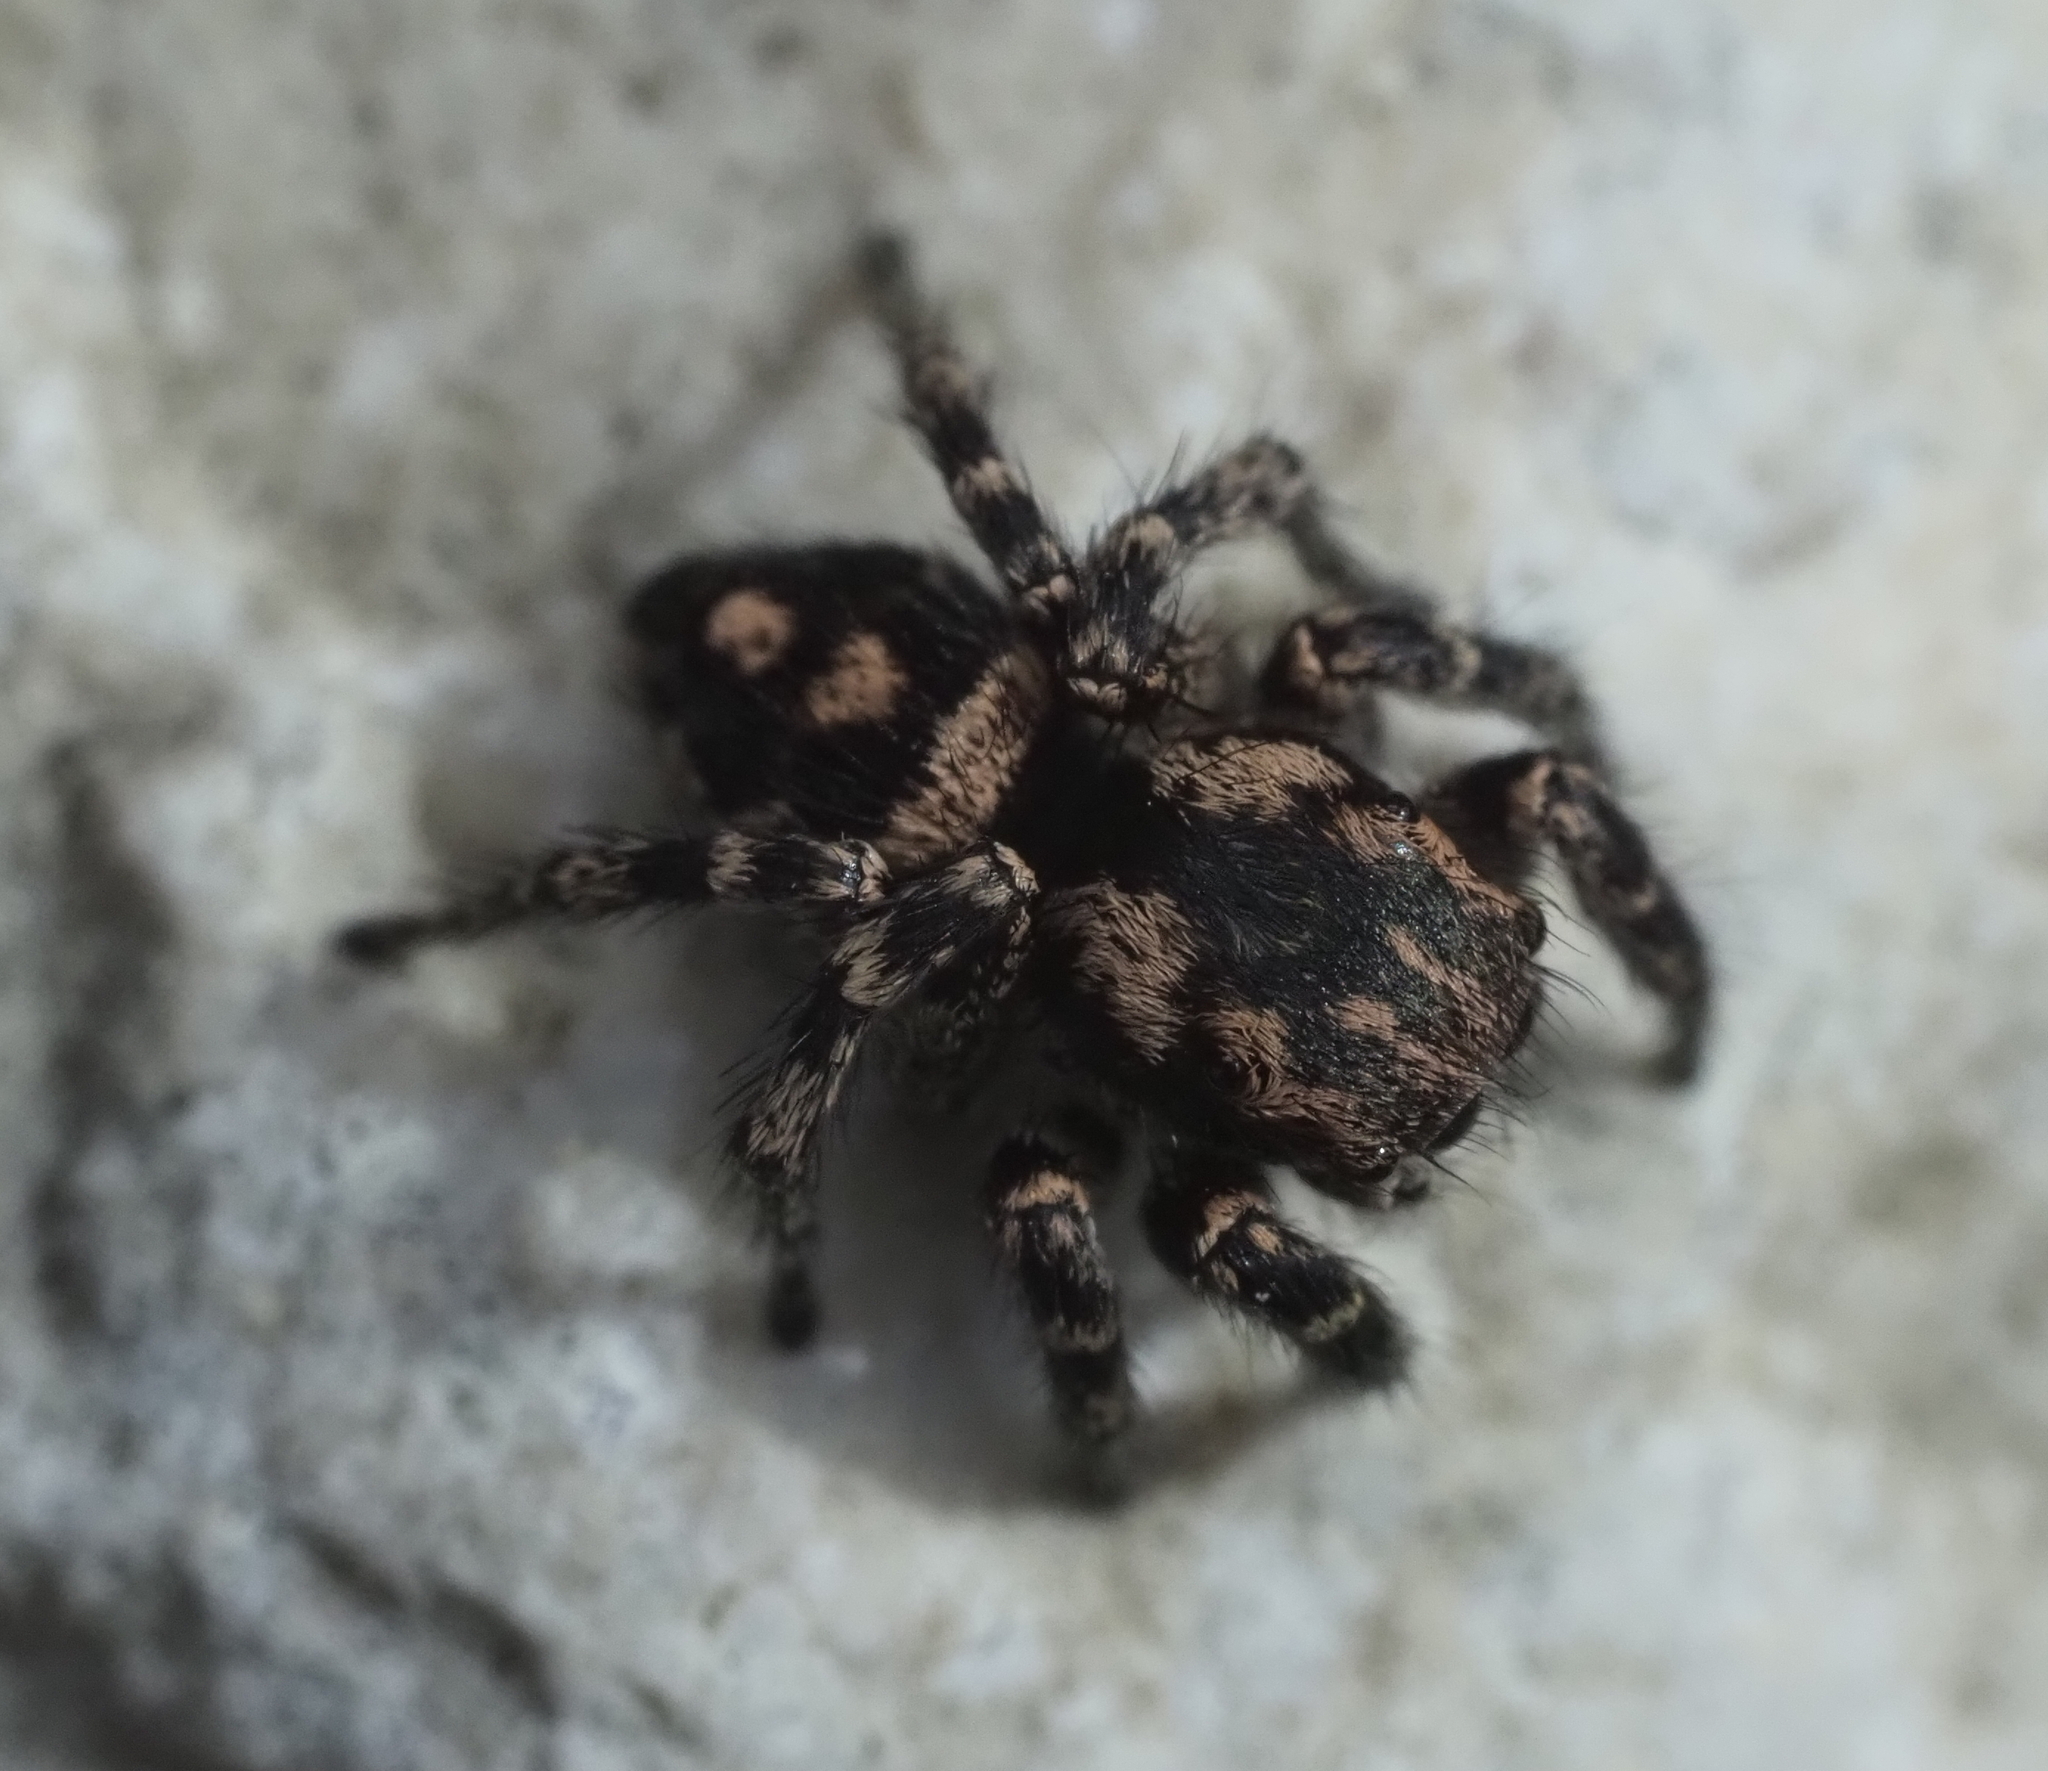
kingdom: Animalia
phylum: Arthropoda
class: Arachnida
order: Araneae
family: Salticidae
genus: Habronattus
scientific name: Habronattus fallax
